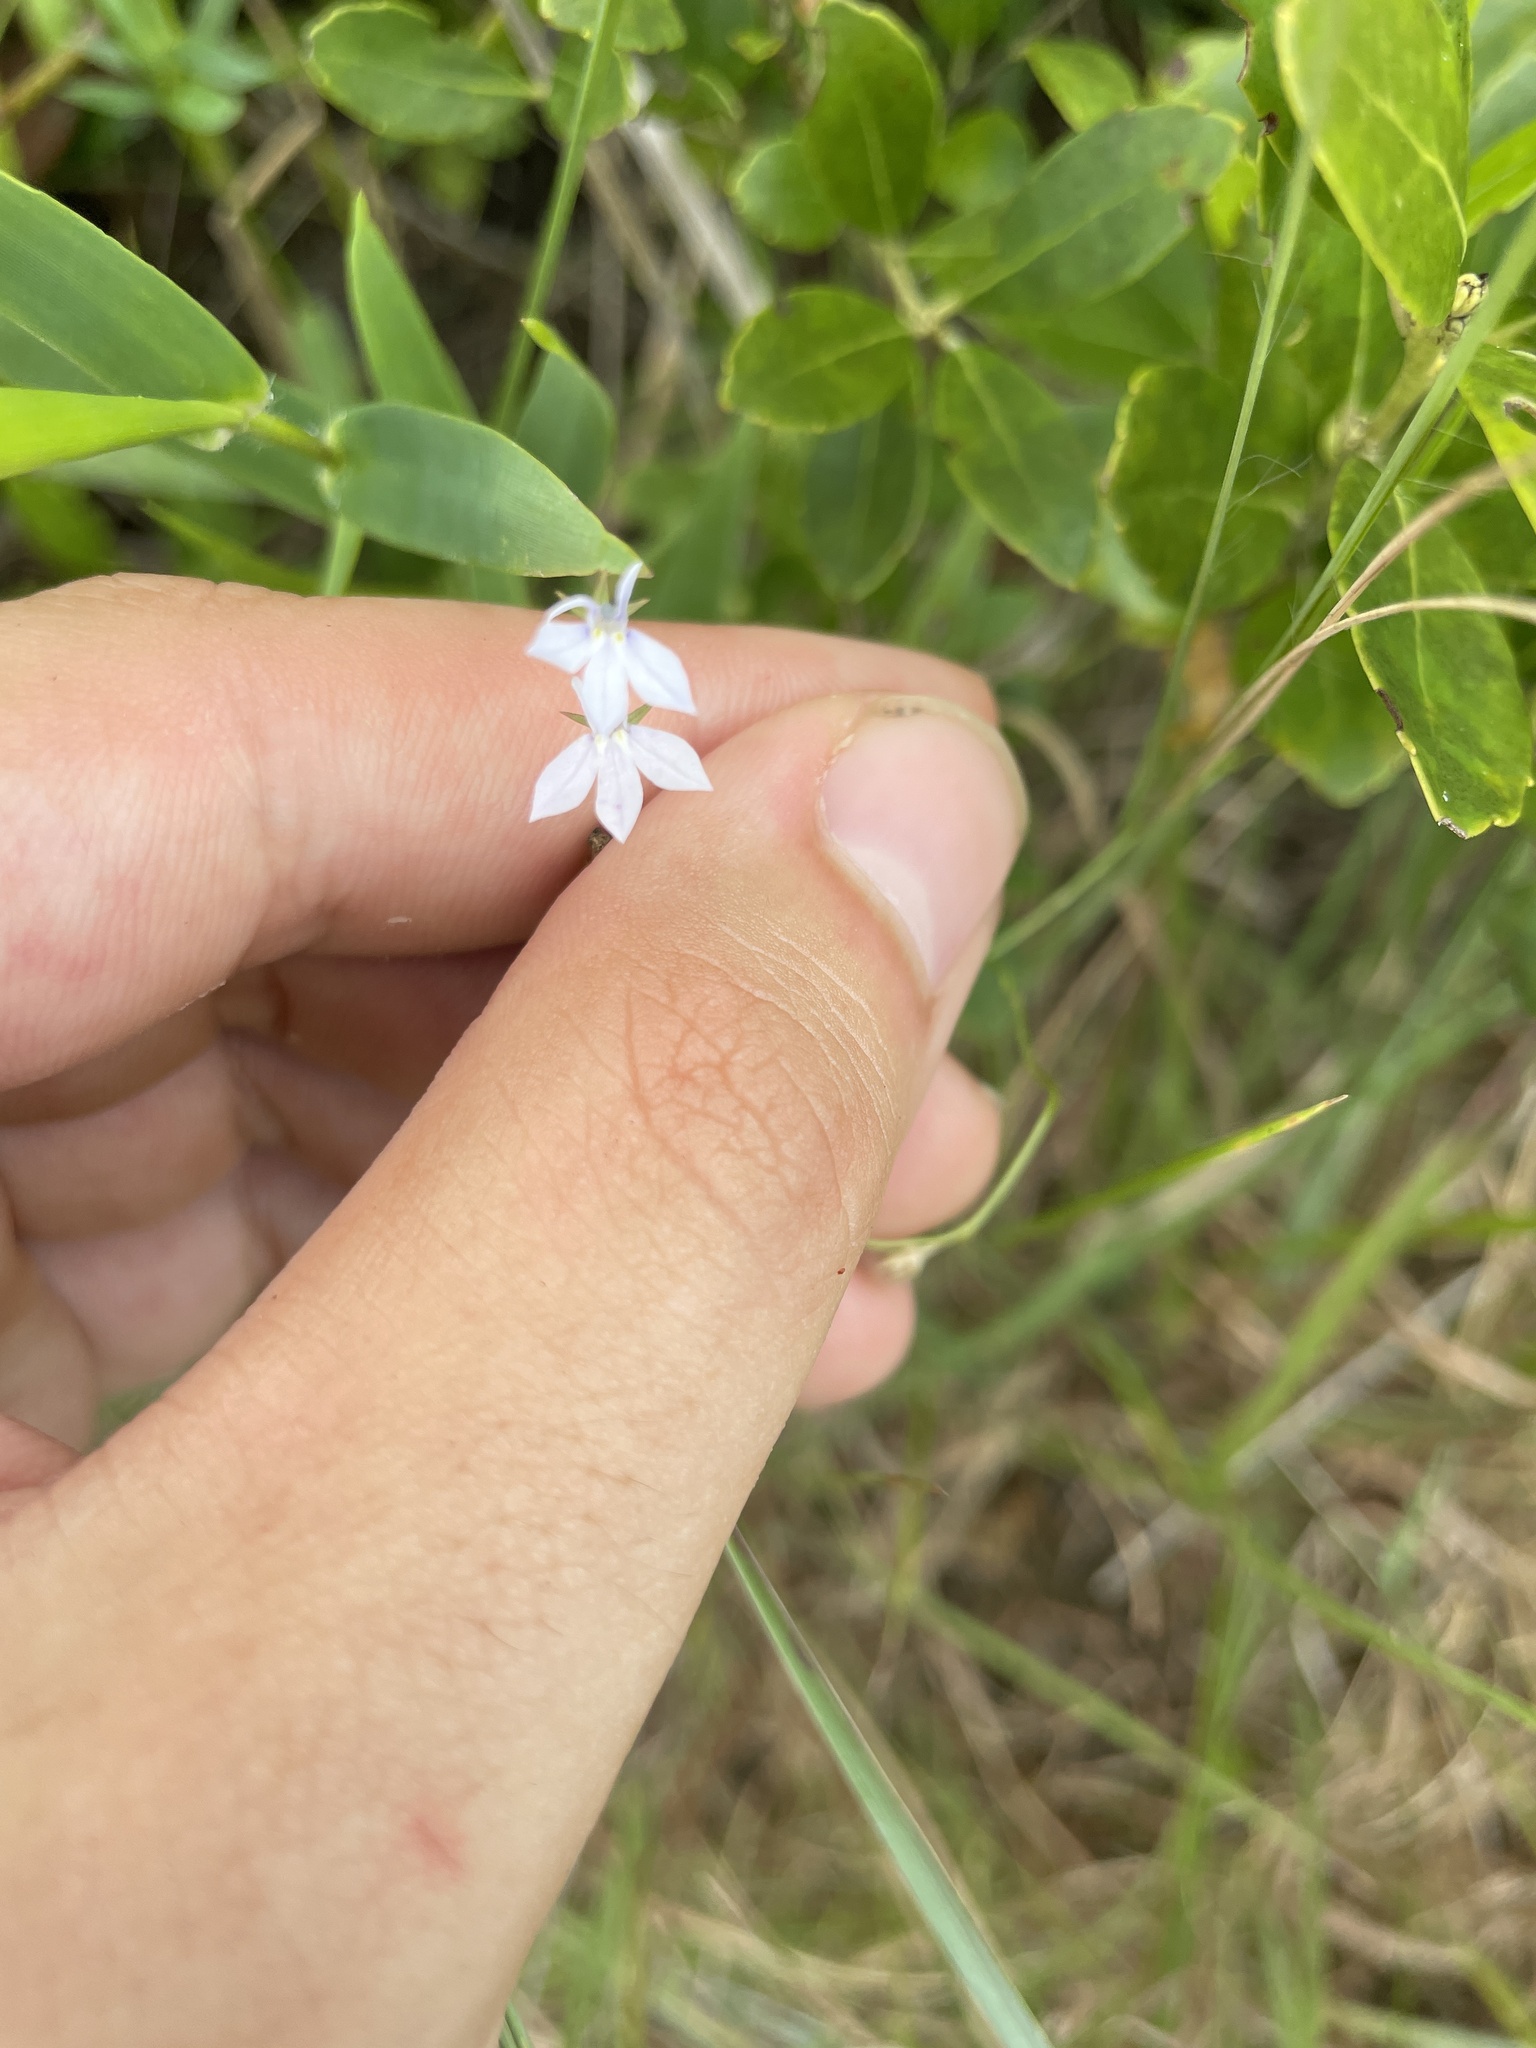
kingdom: Plantae
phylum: Tracheophyta
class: Magnoliopsida
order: Asterales
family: Campanulaceae
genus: Lobelia
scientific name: Lobelia nuttallii
